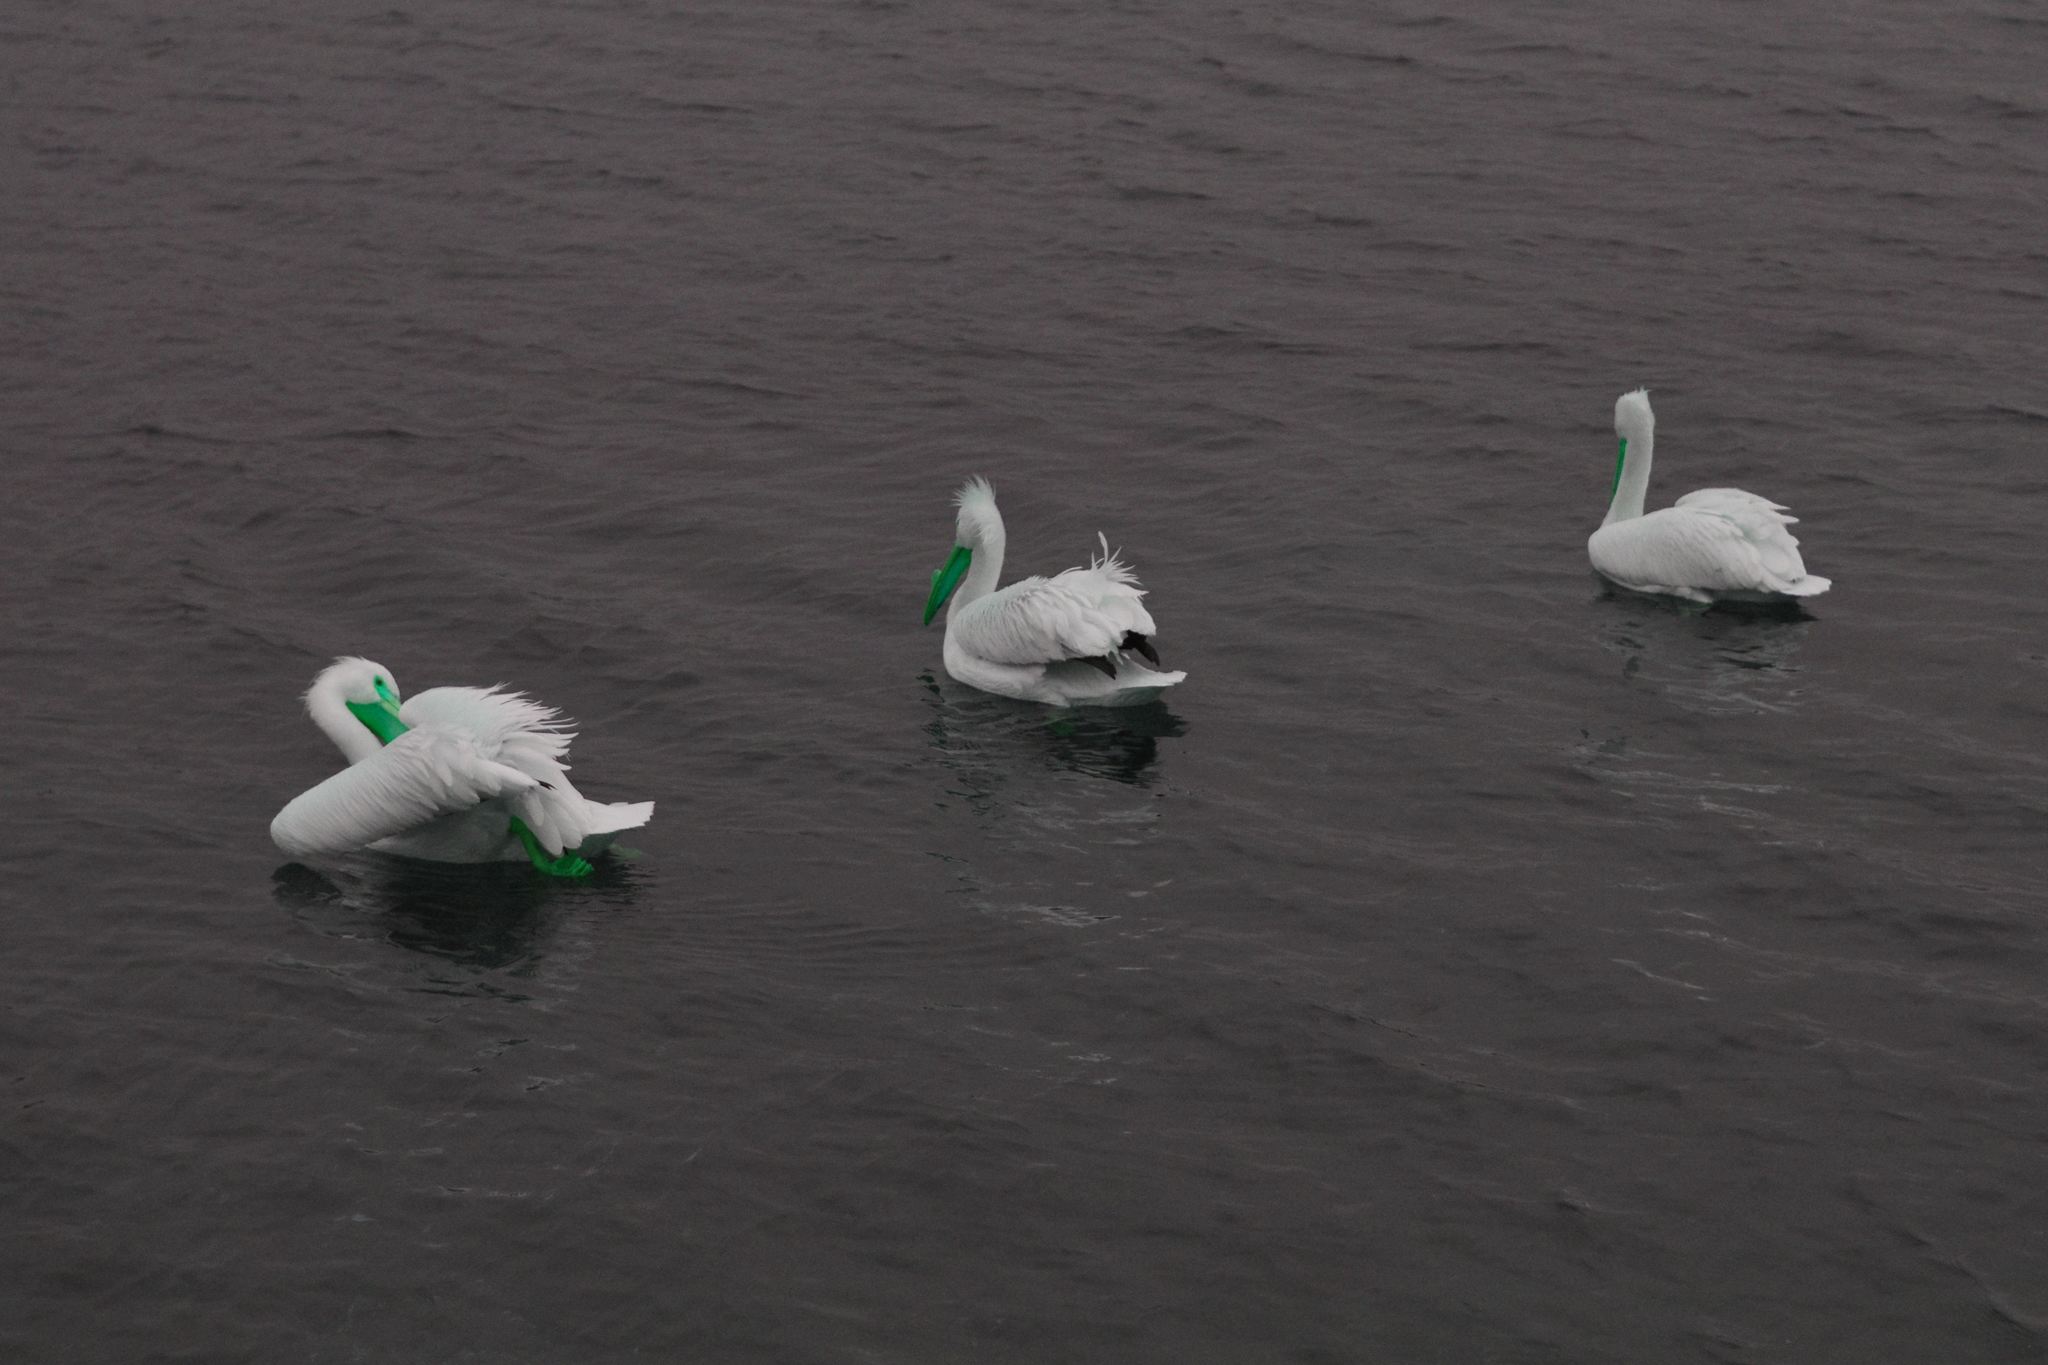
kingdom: Animalia
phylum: Chordata
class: Aves
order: Pelecaniformes
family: Pelecanidae
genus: Pelecanus
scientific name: Pelecanus erythrorhynchos
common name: American white pelican
